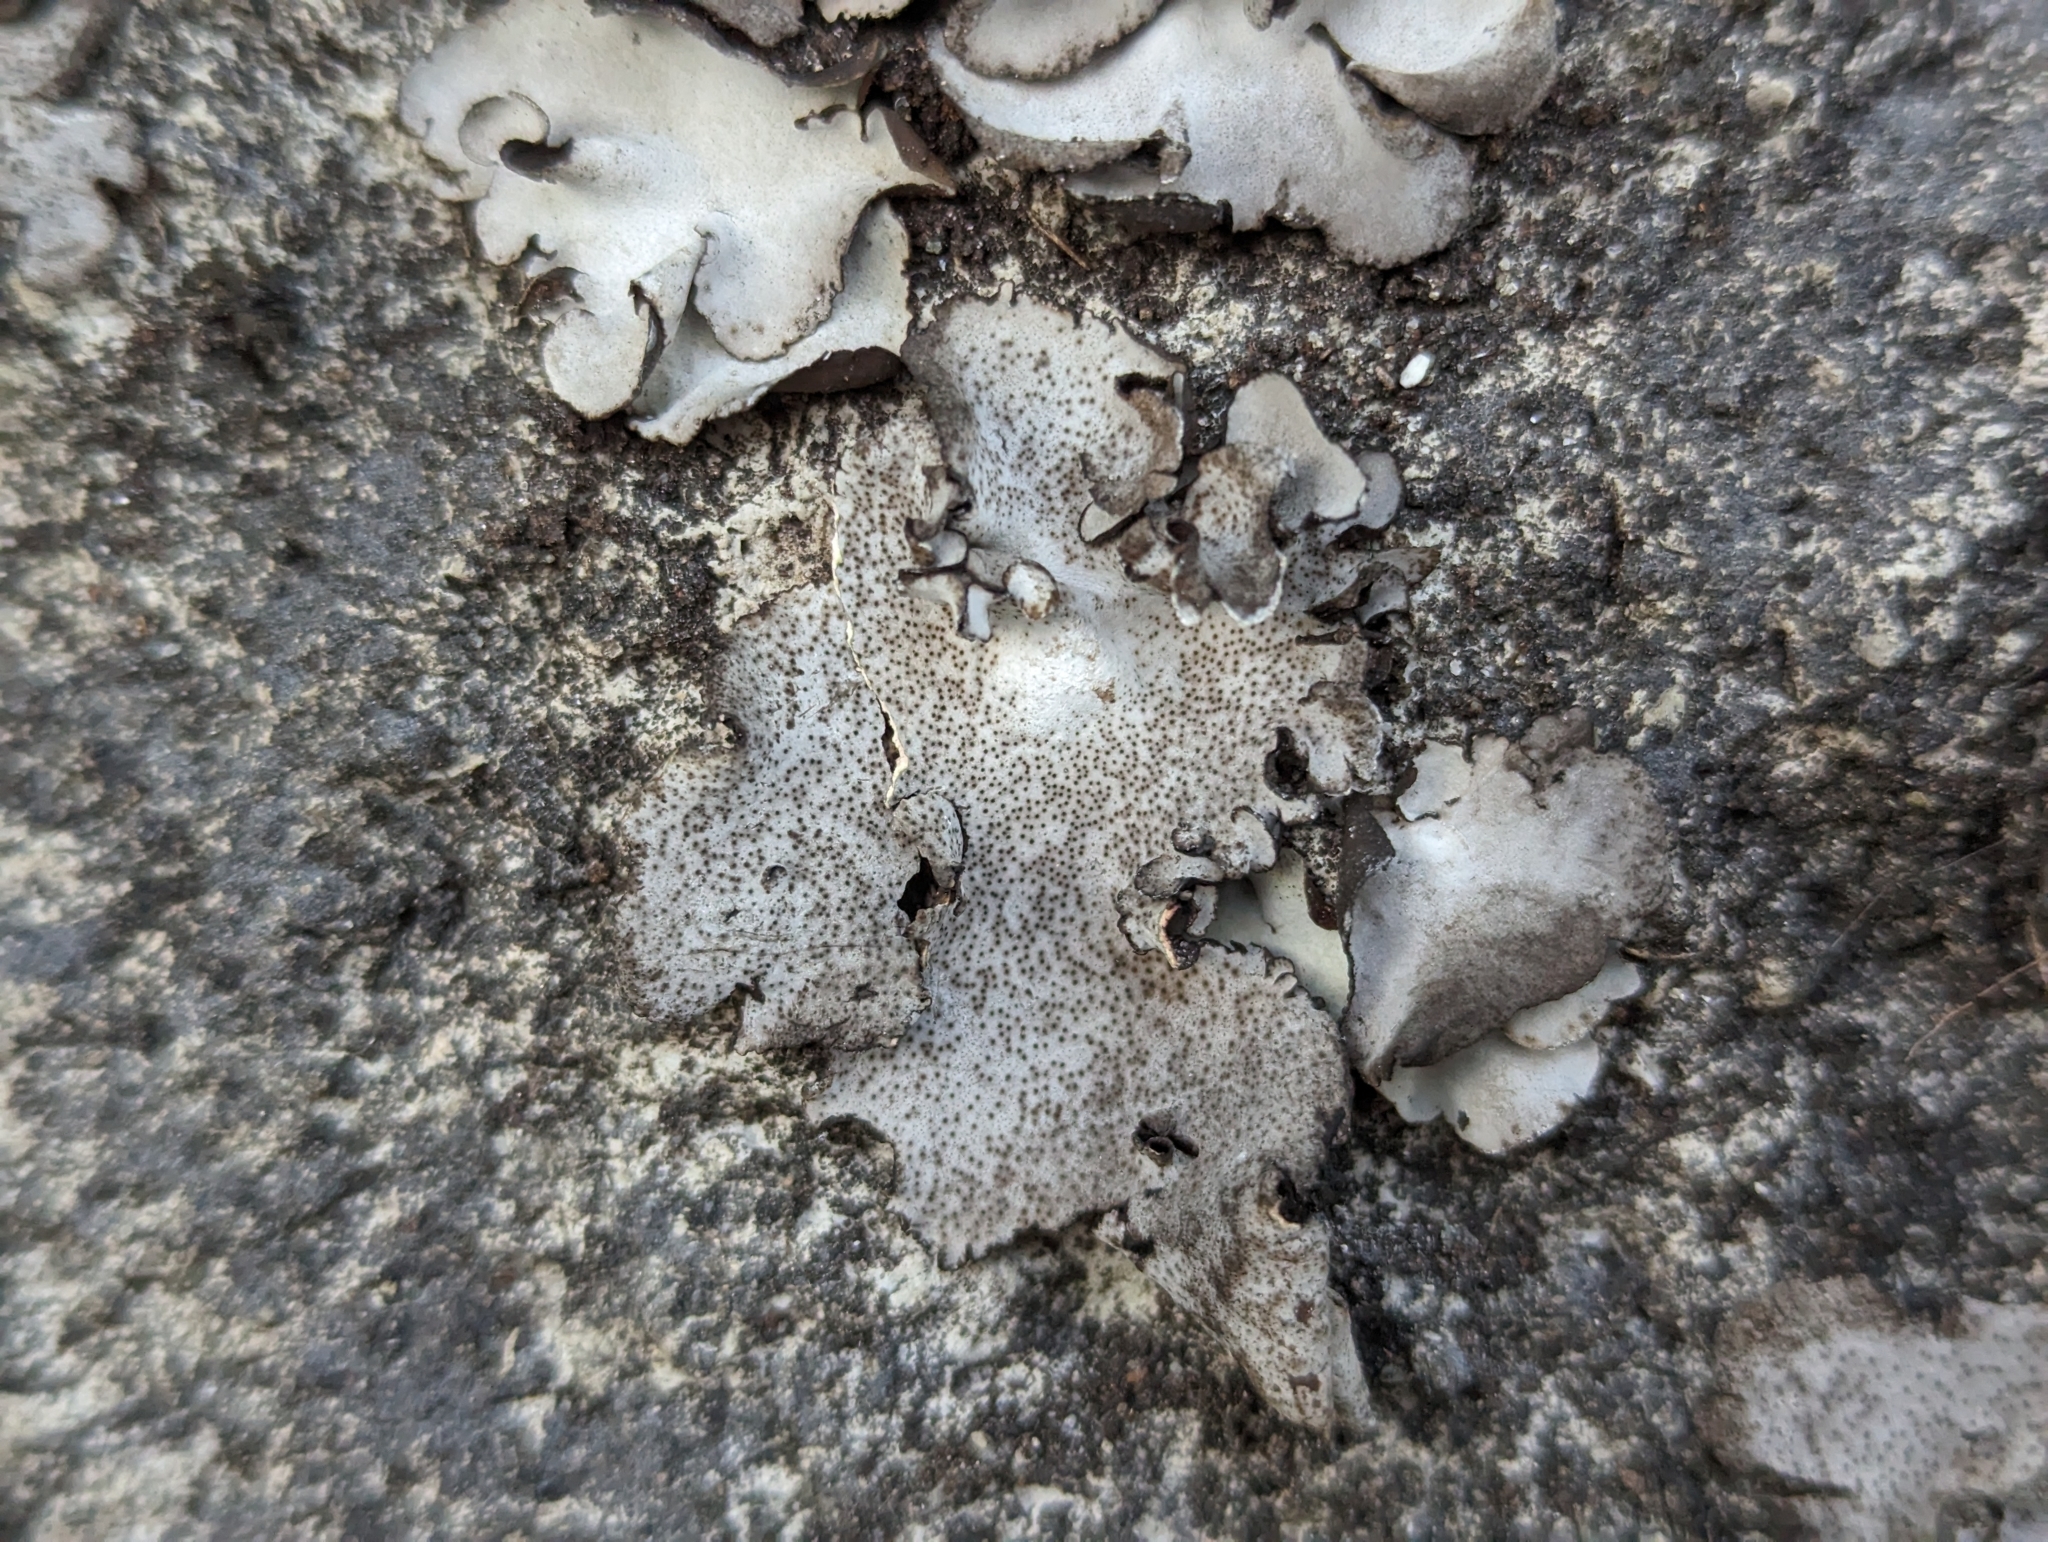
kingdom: Fungi
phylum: Ascomycota
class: Eurotiomycetes
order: Verrucariales
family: Verrucariaceae
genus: Dermatocarpon
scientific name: Dermatocarpon miniatum
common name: Leather lichen
